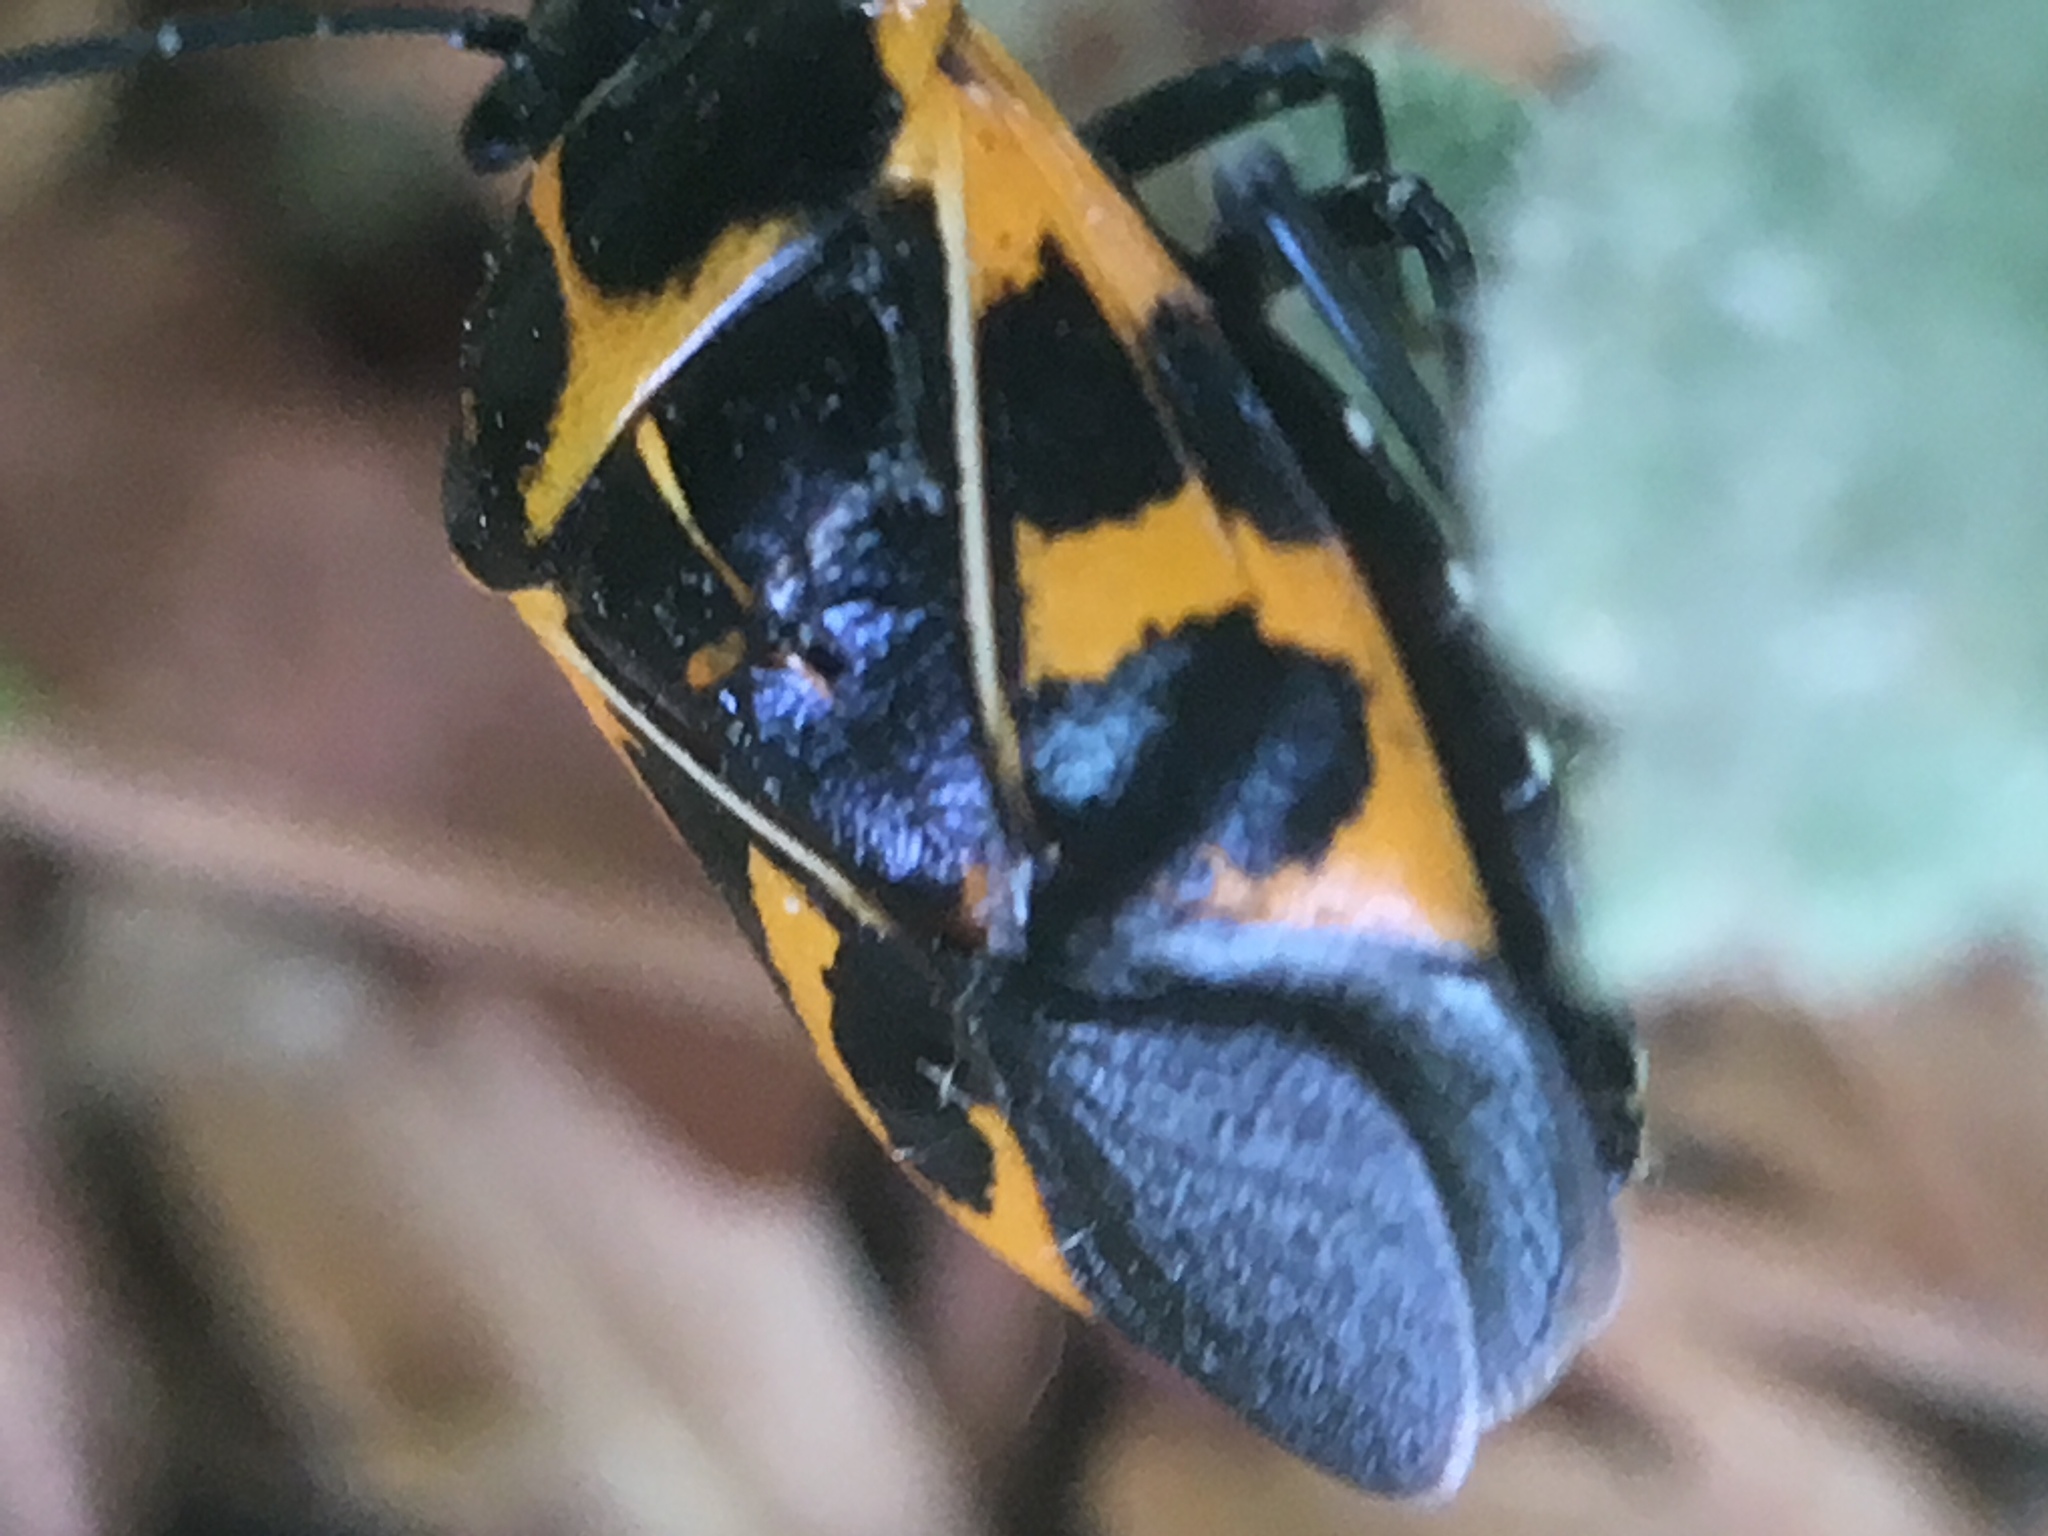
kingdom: Animalia
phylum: Arthropoda
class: Insecta
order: Hemiptera
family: Pentatomidae
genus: Murgantia
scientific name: Murgantia histrionica
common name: Harlequin bug
